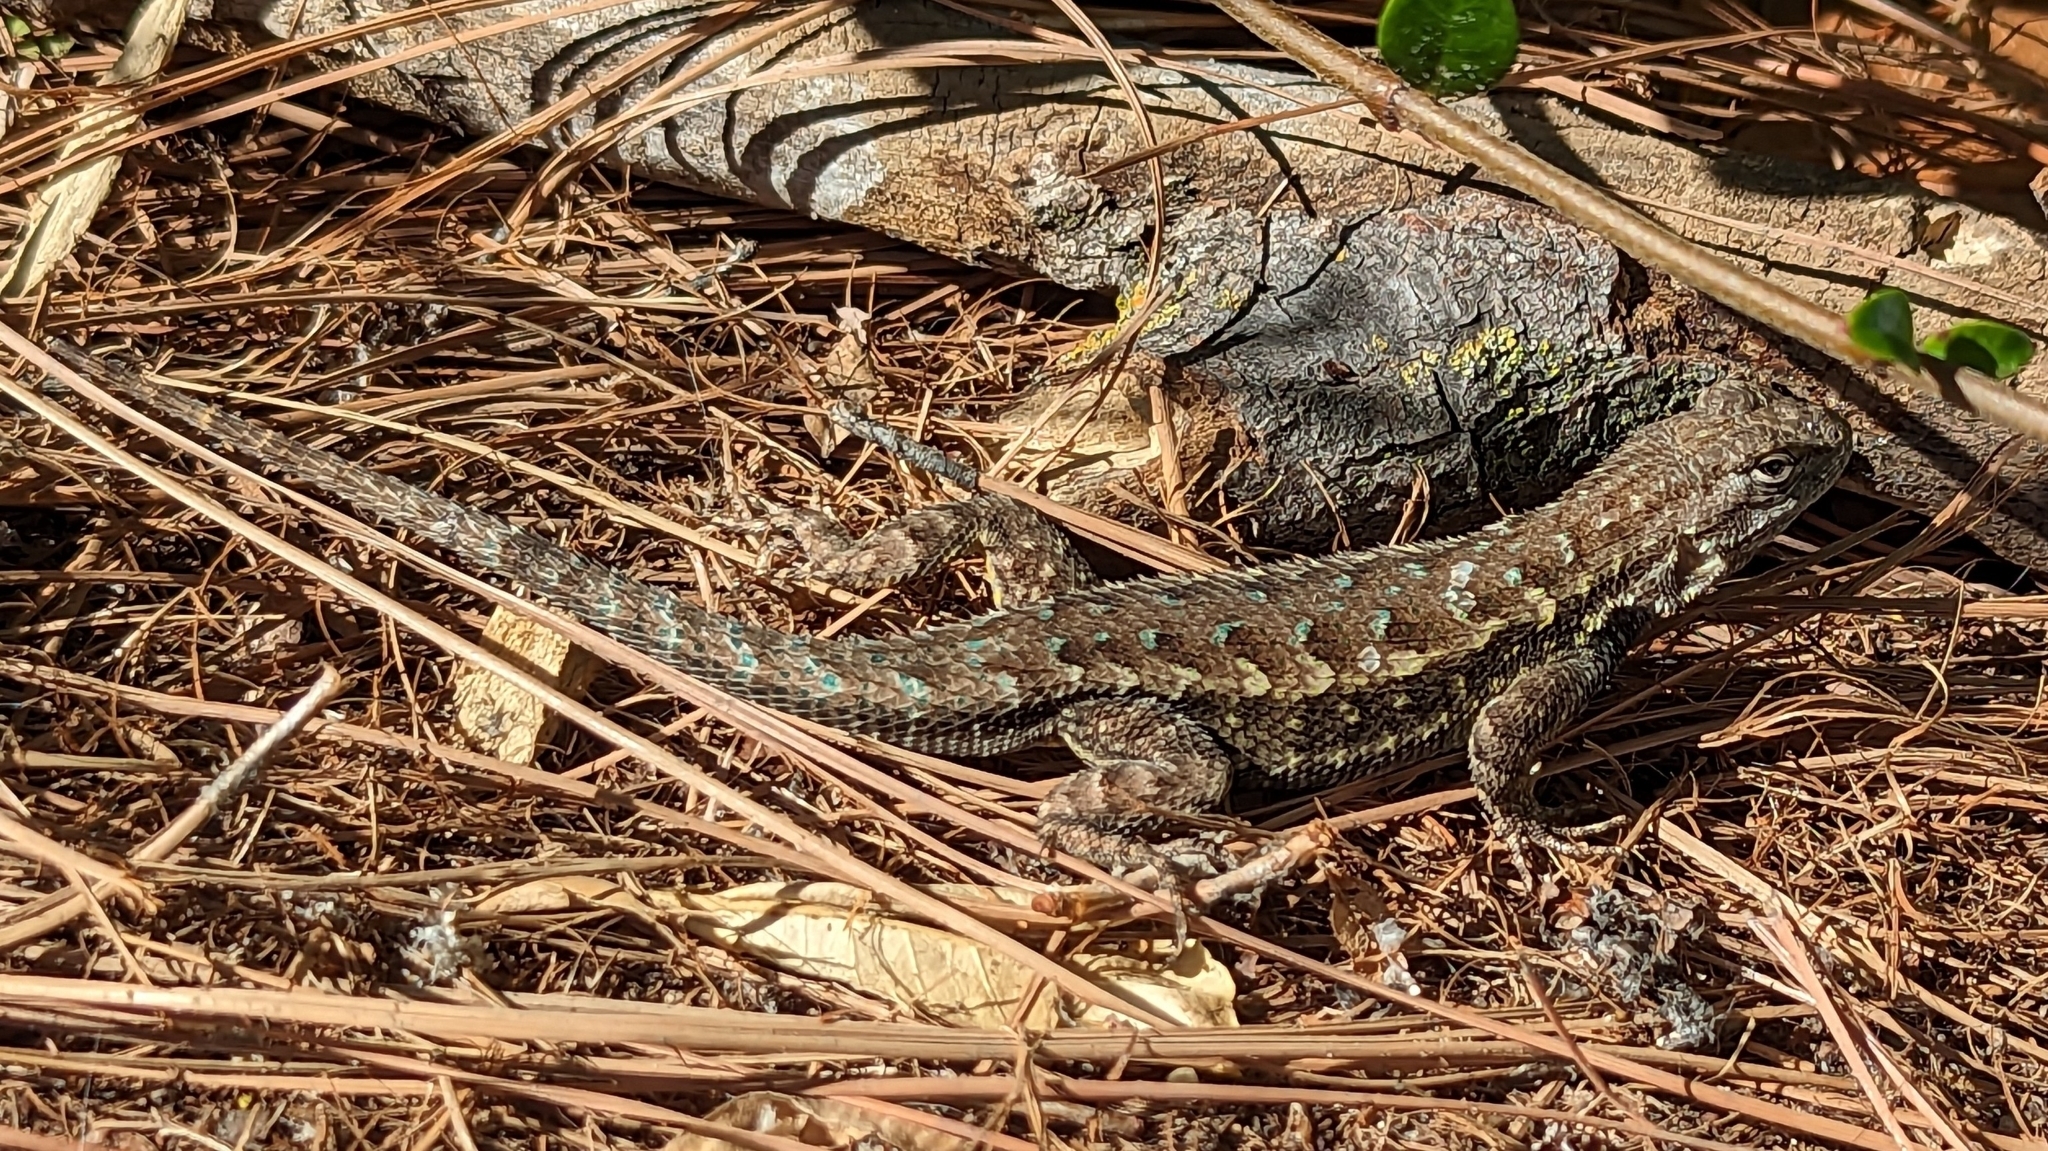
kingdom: Animalia
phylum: Chordata
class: Squamata
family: Phrynosomatidae
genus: Sceloporus
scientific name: Sceloporus occidentalis
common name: Western fence lizard
